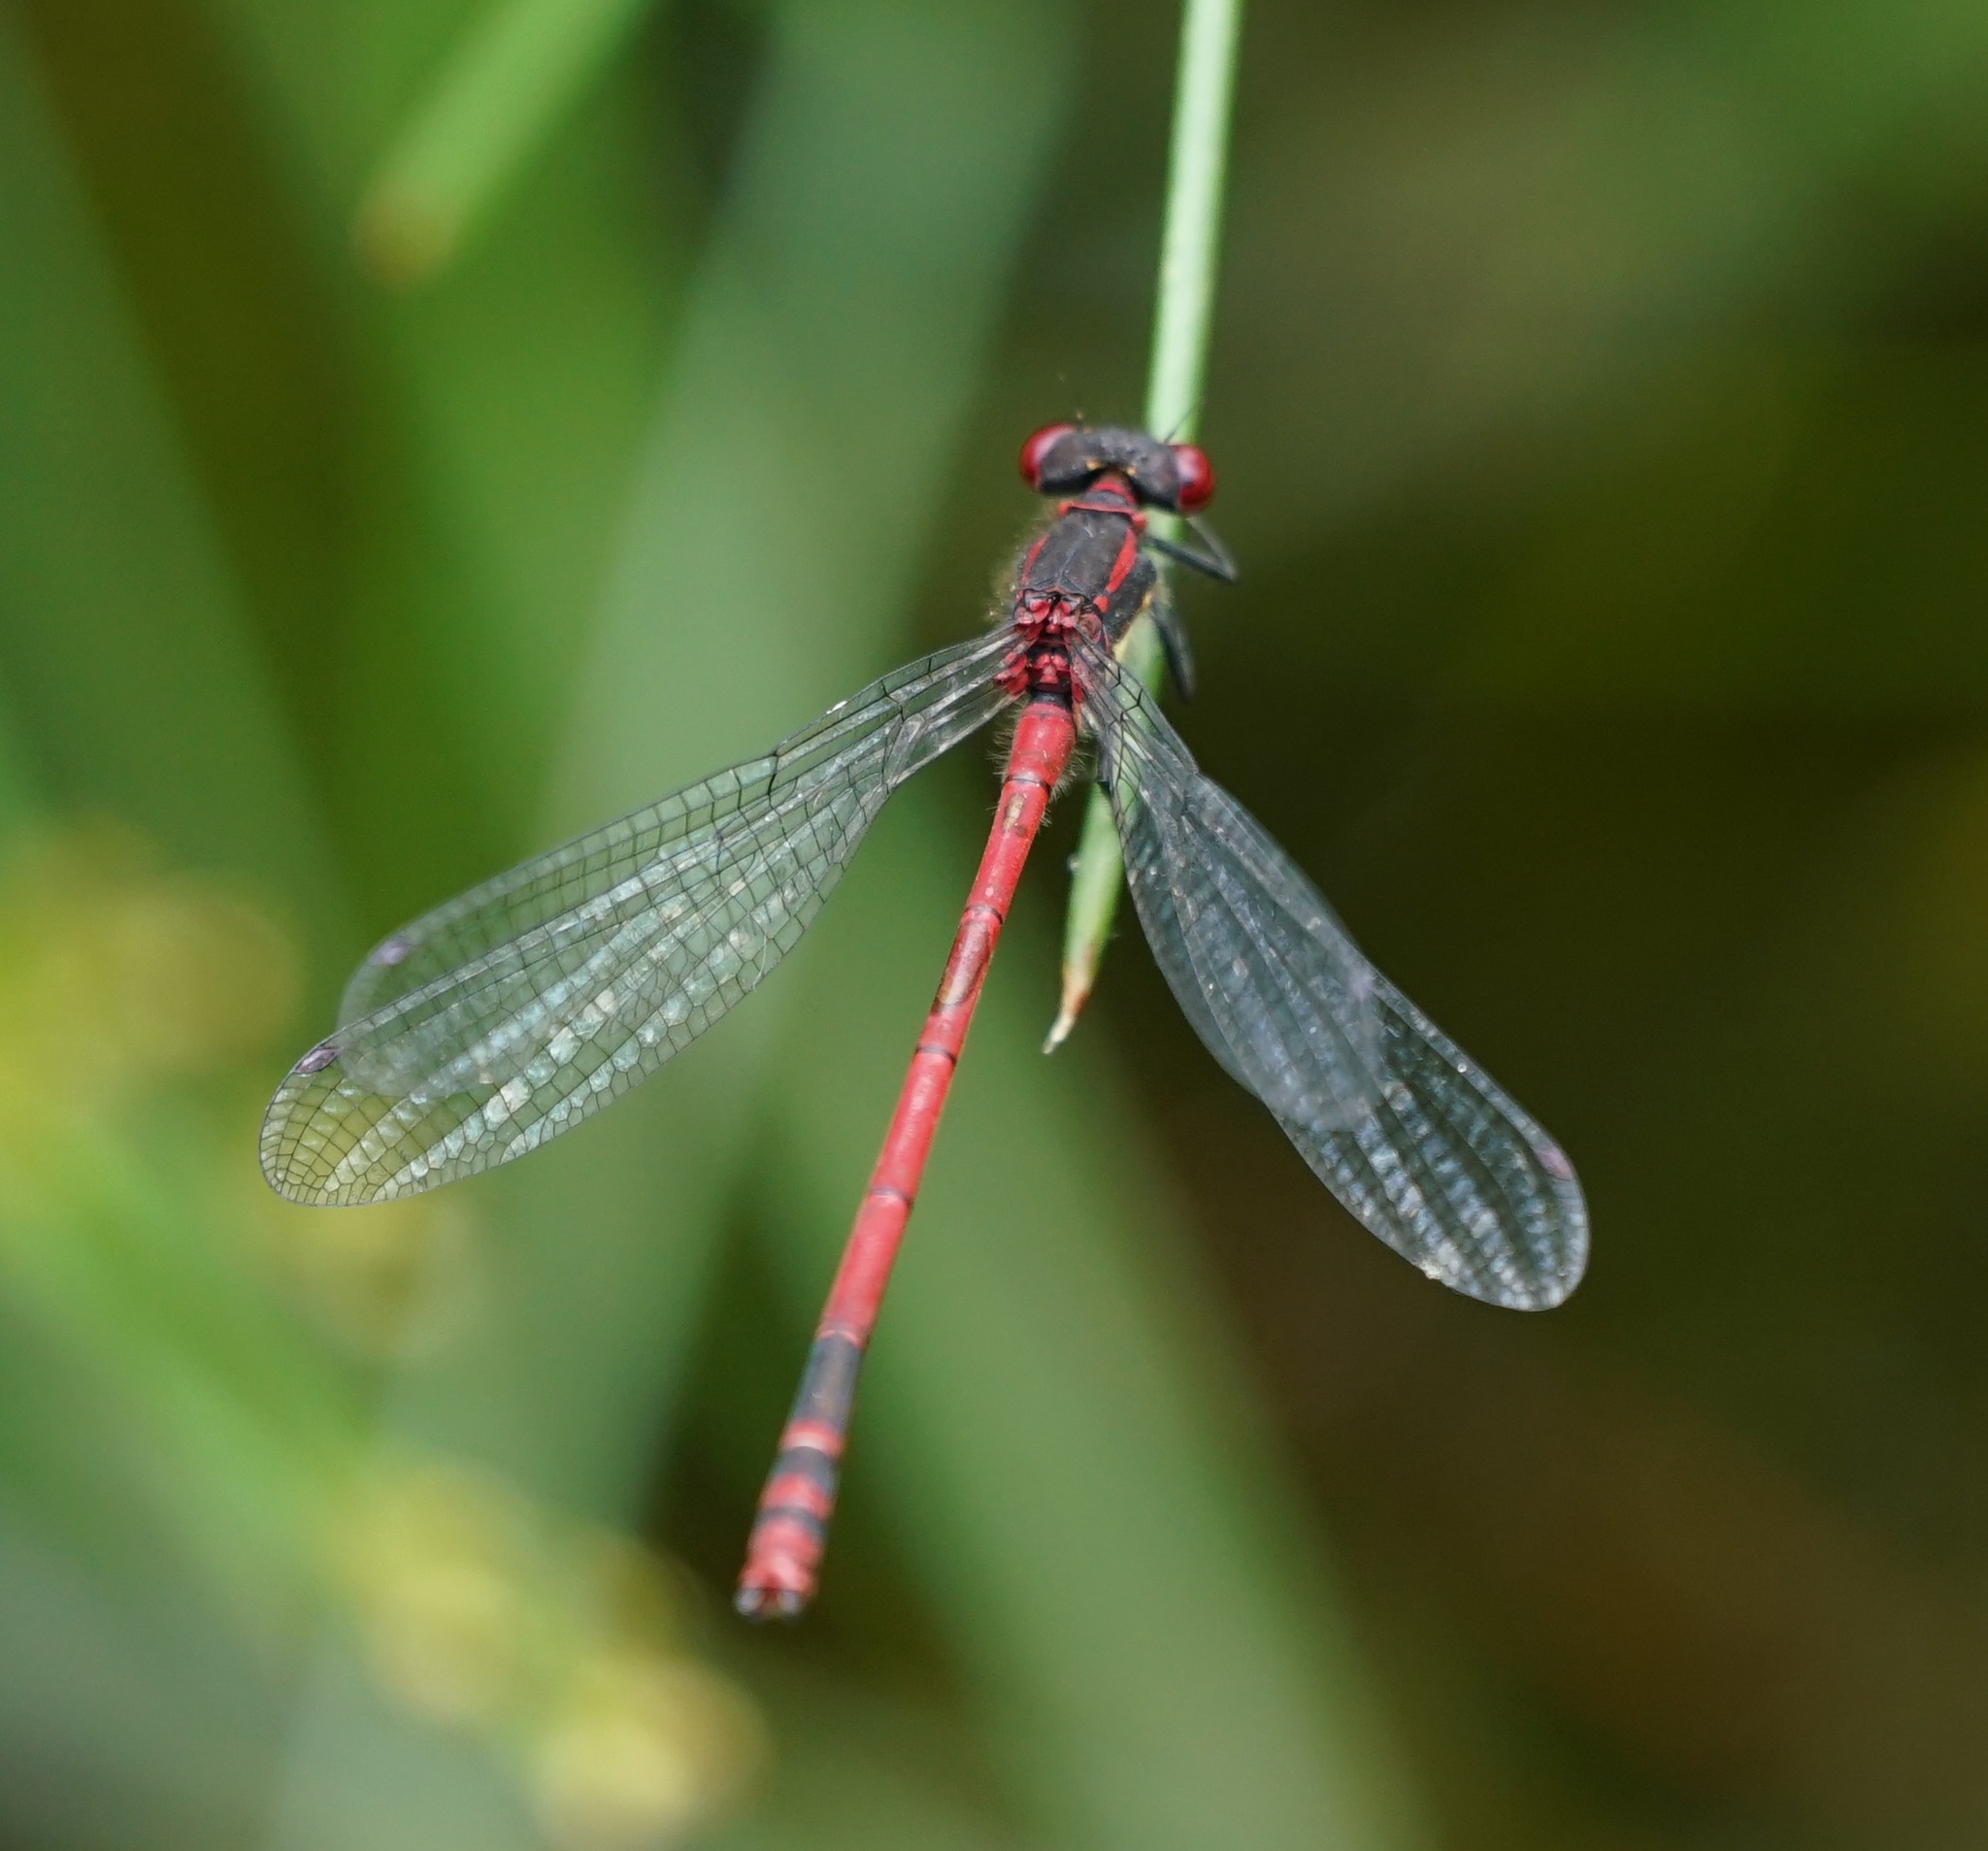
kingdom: Animalia
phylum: Arthropoda
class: Insecta
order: Odonata
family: Coenagrionidae
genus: Pyrrhosoma
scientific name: Pyrrhosoma nymphula
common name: Large red damsel
